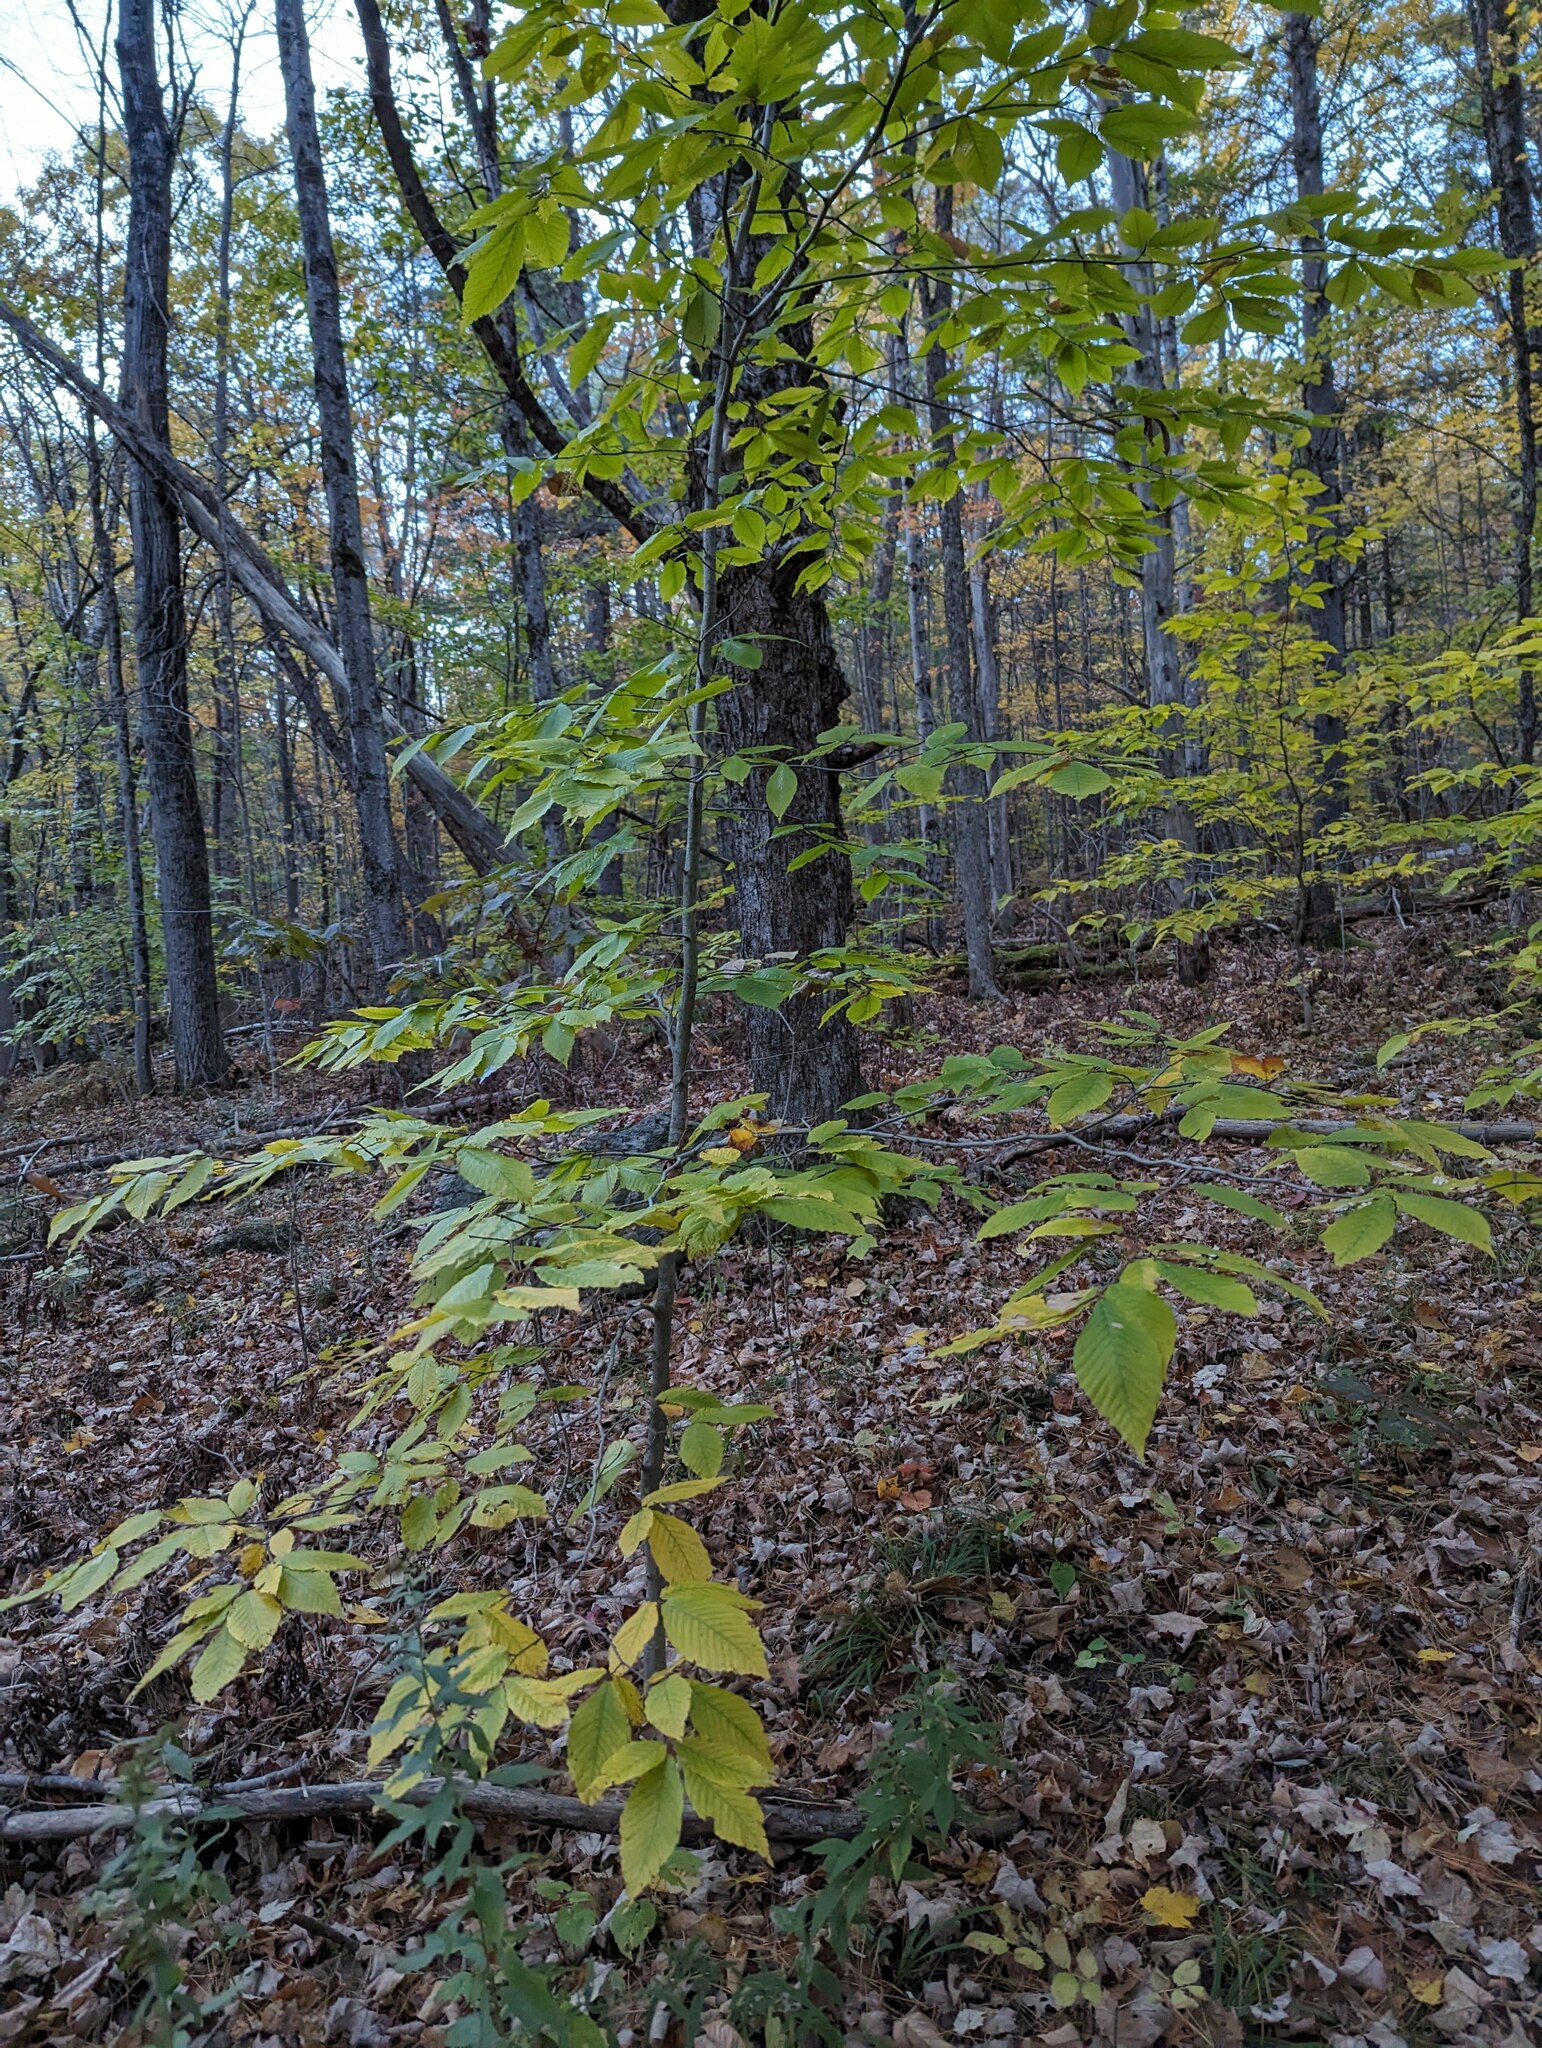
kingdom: Plantae
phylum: Tracheophyta
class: Magnoliopsida
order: Fagales
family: Fagaceae
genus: Fagus
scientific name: Fagus grandifolia
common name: American beech
